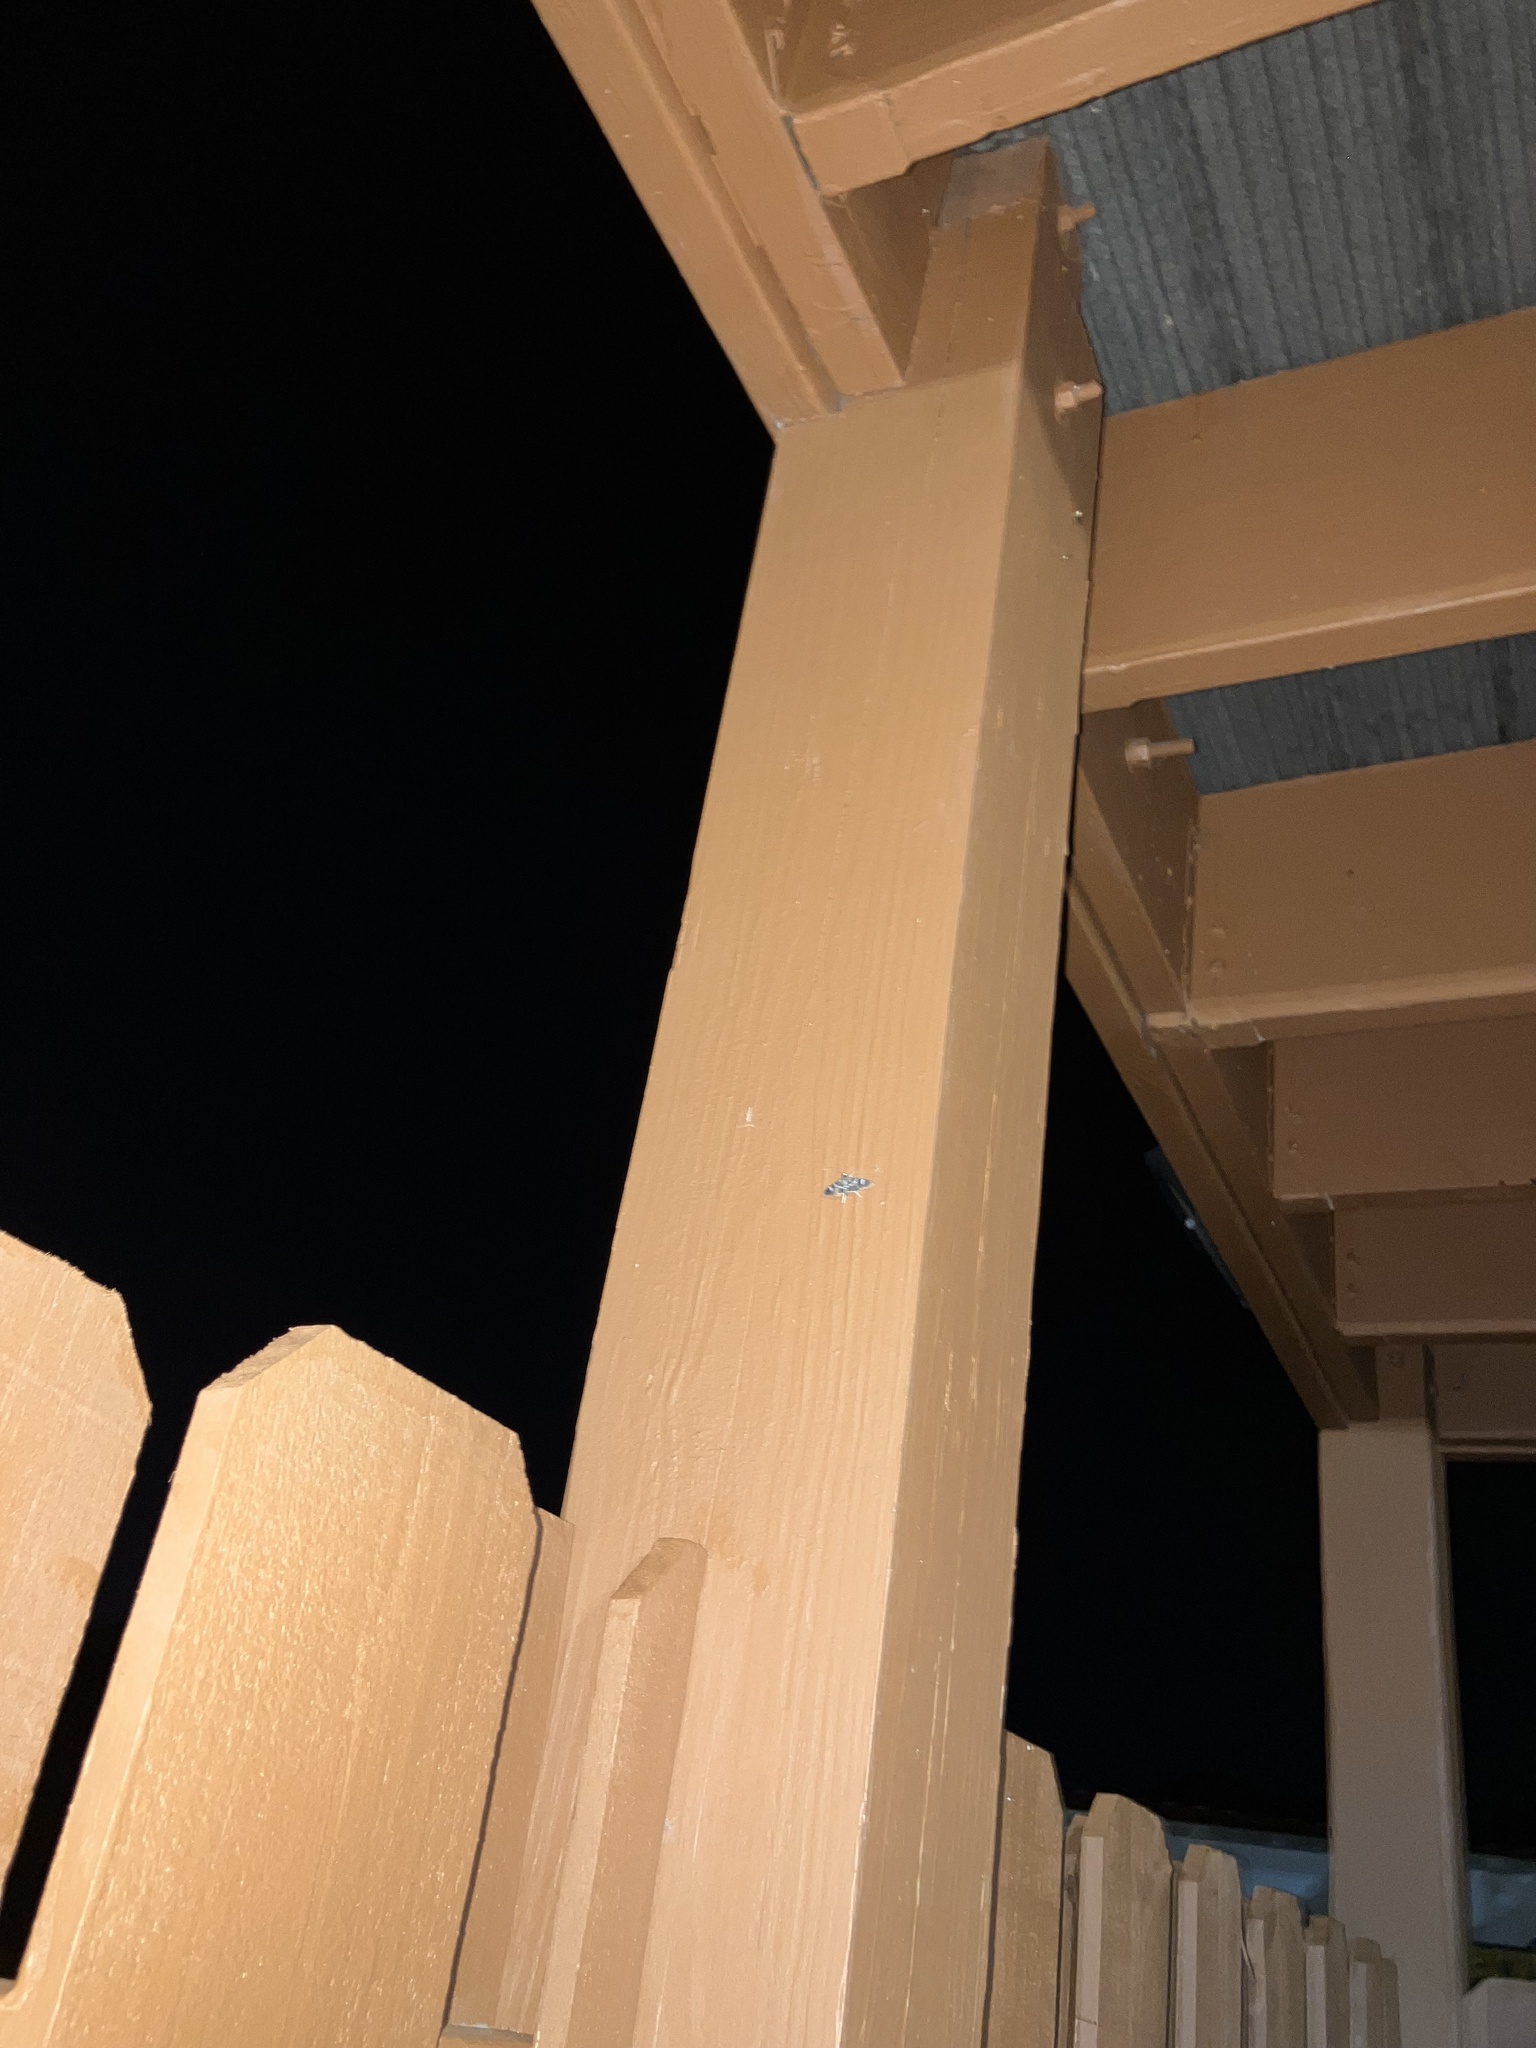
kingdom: Animalia
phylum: Arthropoda
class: Insecta
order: Lepidoptera
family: Crambidae
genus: Desmia
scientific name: Desmia funeralis
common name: Grape leaf folder moth
